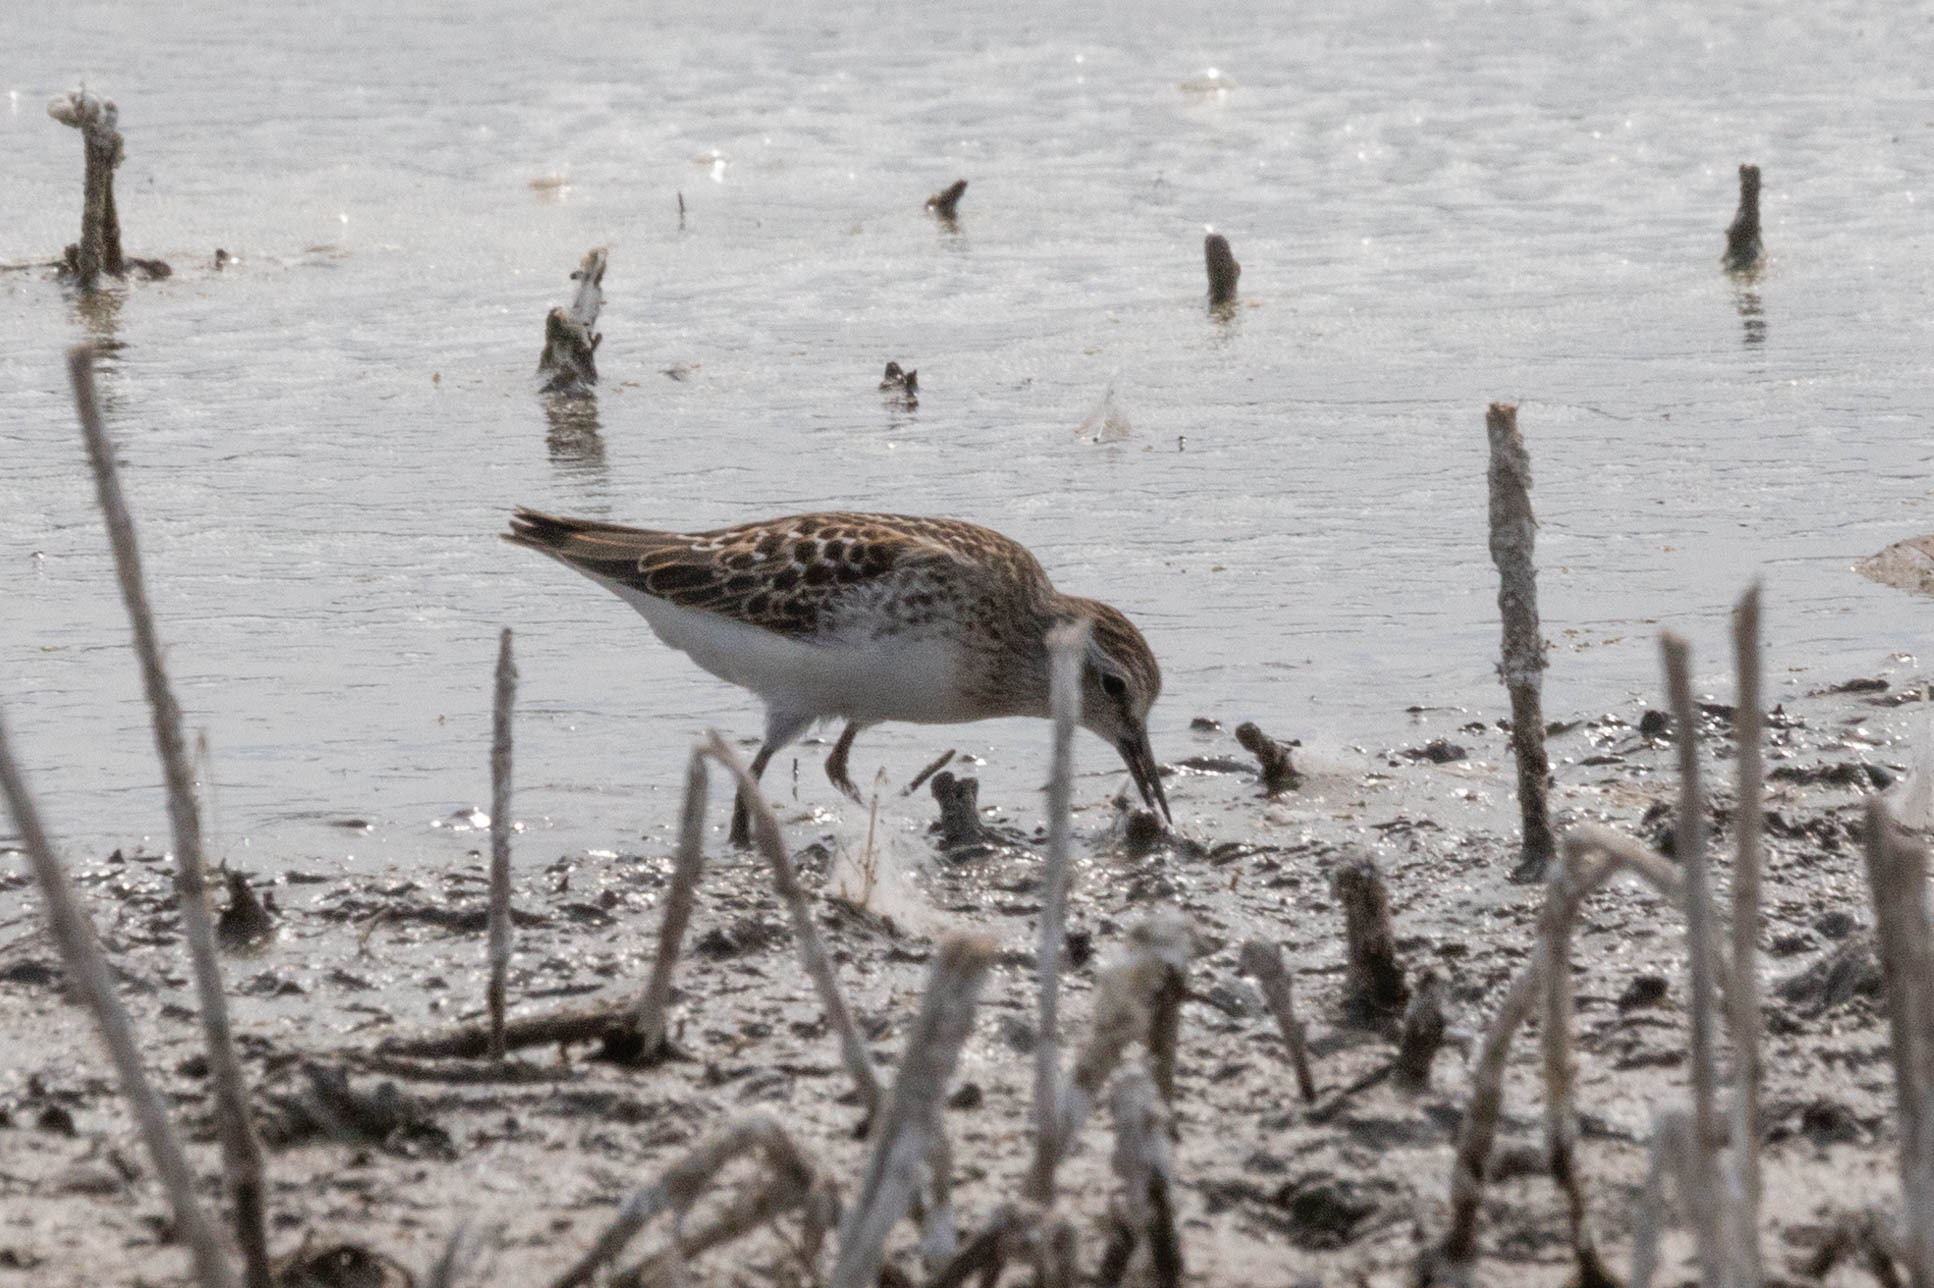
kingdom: Animalia
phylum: Chordata
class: Aves
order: Charadriiformes
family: Scolopacidae
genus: Calidris
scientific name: Calidris minutilla
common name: Least sandpiper
